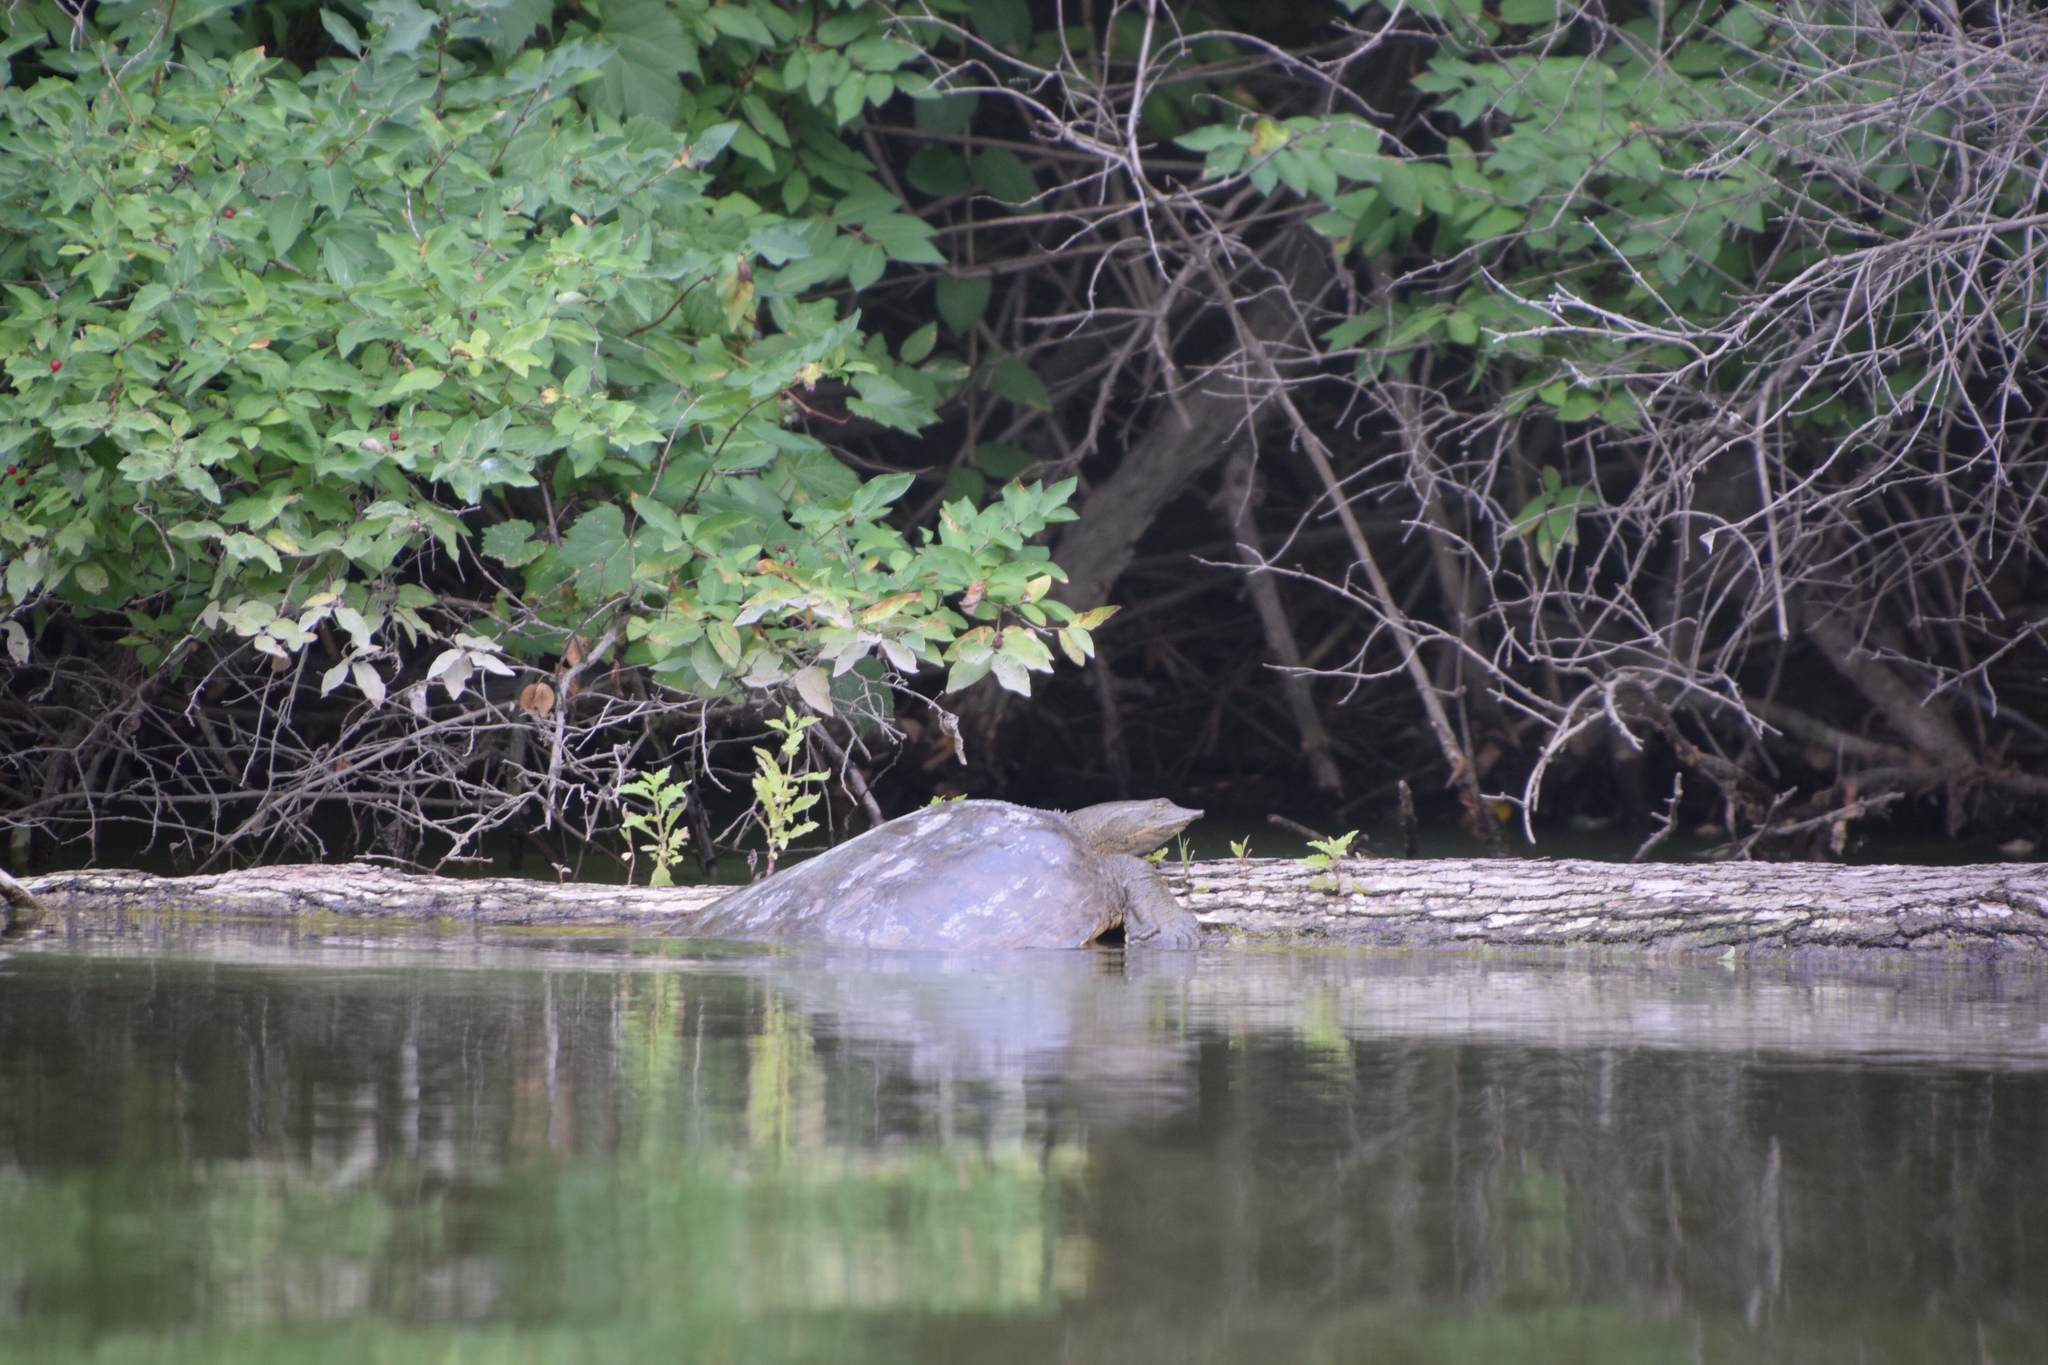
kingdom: Animalia
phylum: Chordata
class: Testudines
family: Trionychidae
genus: Apalone
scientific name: Apalone spinifera
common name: Spiny softshell turtle
